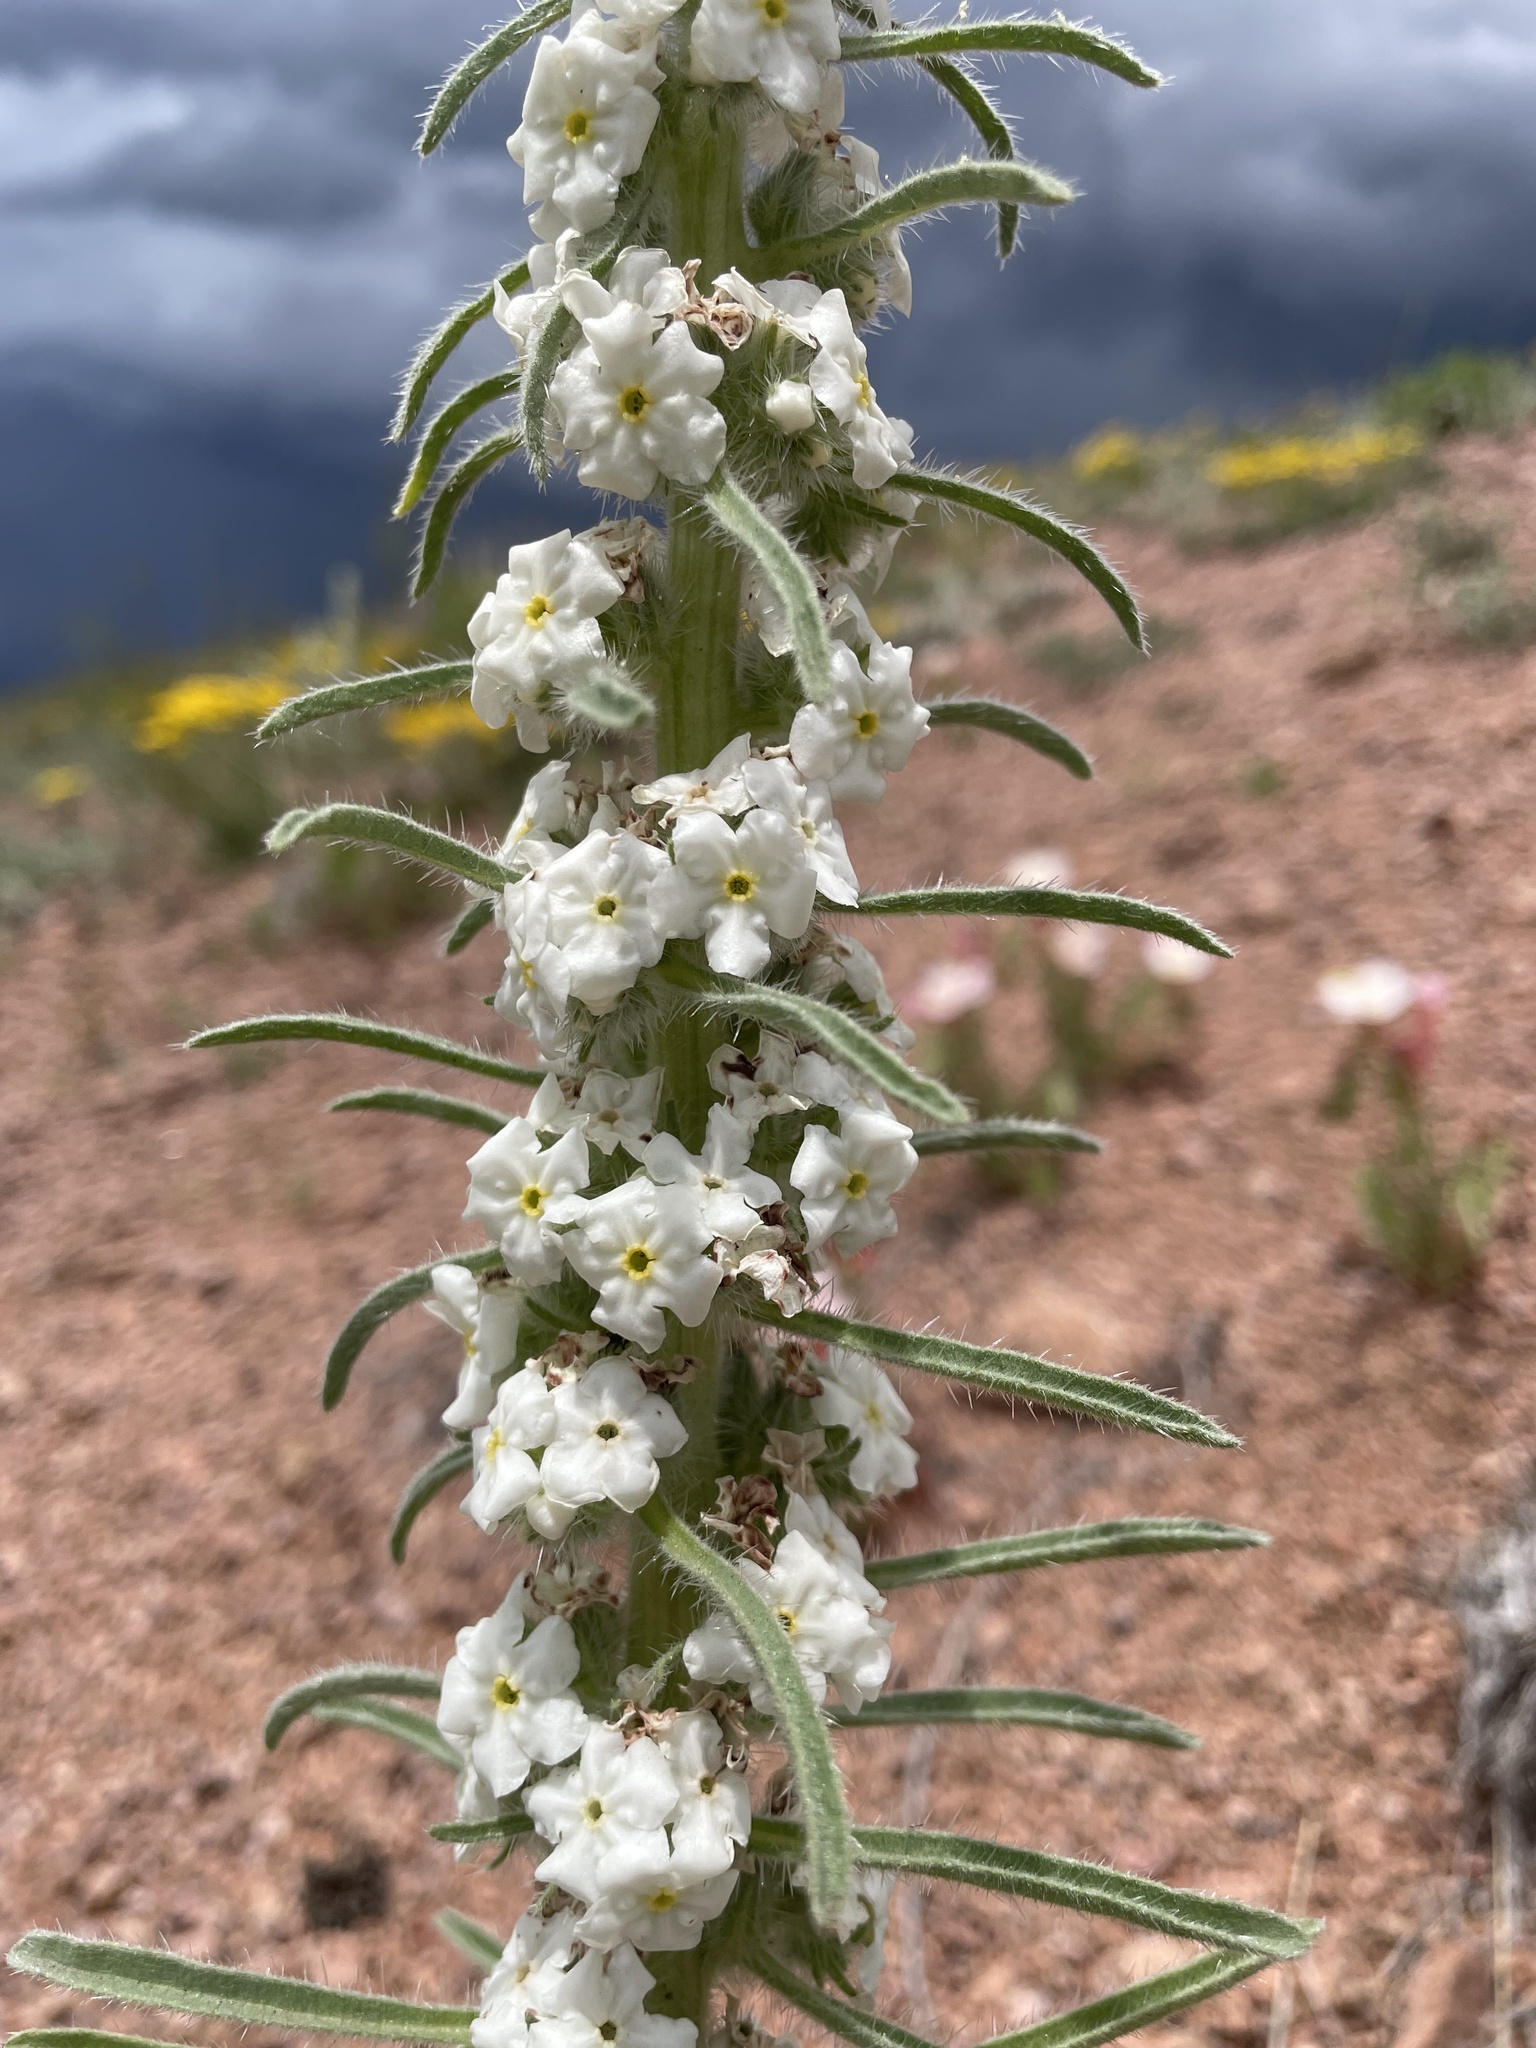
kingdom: Plantae
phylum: Tracheophyta
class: Magnoliopsida
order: Boraginales
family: Boraginaceae
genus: Oreocarya
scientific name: Oreocarya virgata
